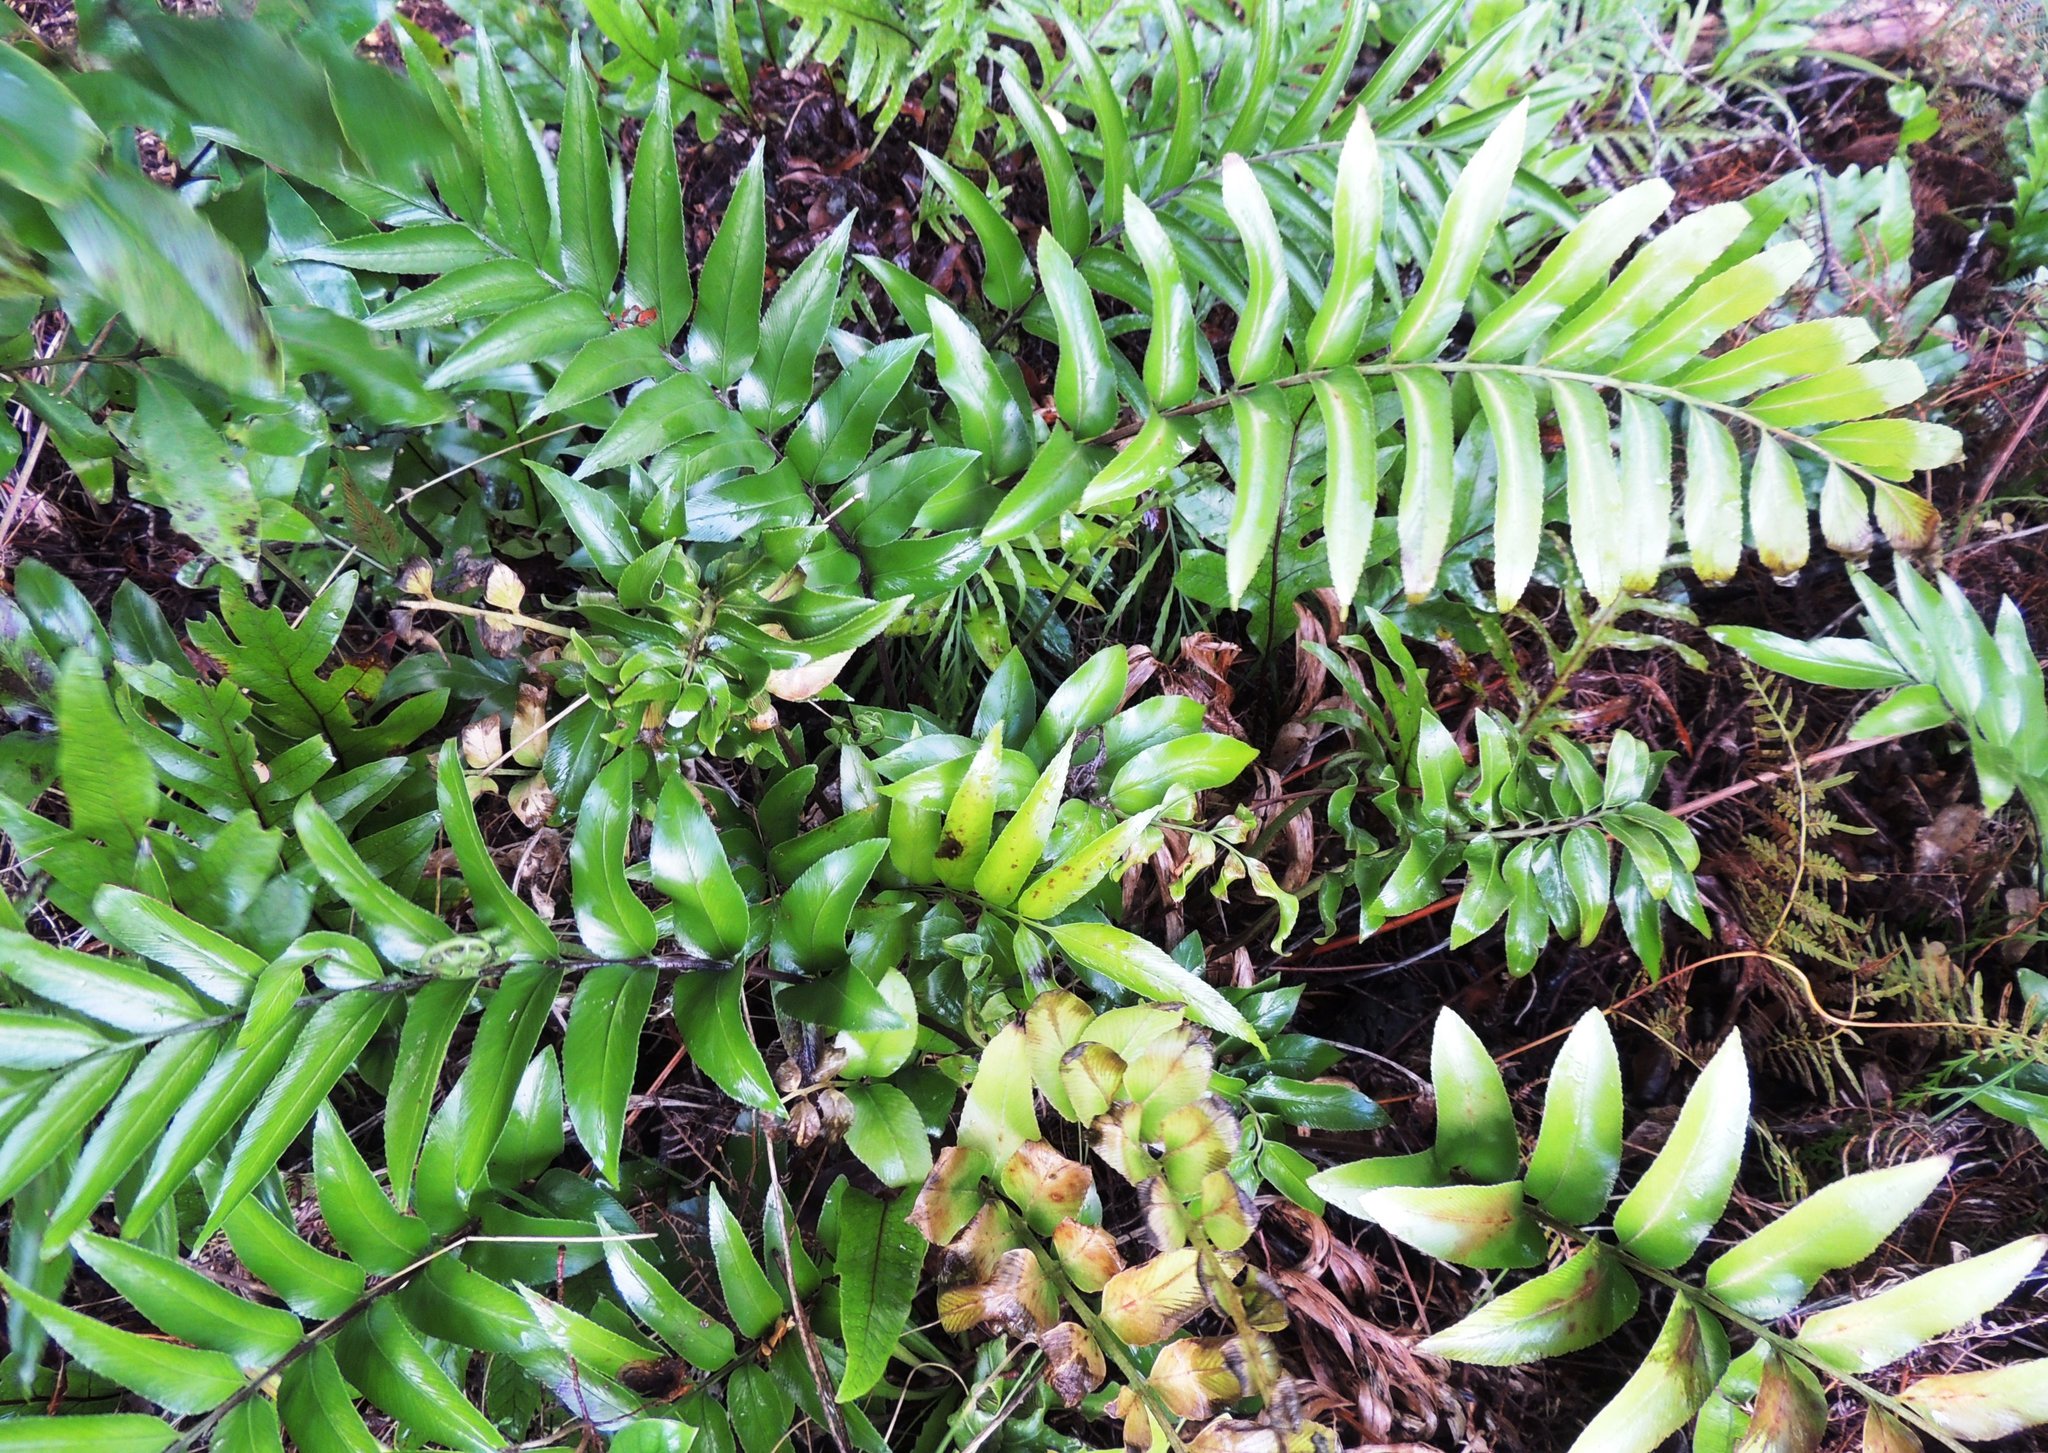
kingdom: Plantae
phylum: Tracheophyta
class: Polypodiopsida
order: Polypodiales
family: Aspleniaceae
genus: Asplenium
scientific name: Asplenium oblongifolium
